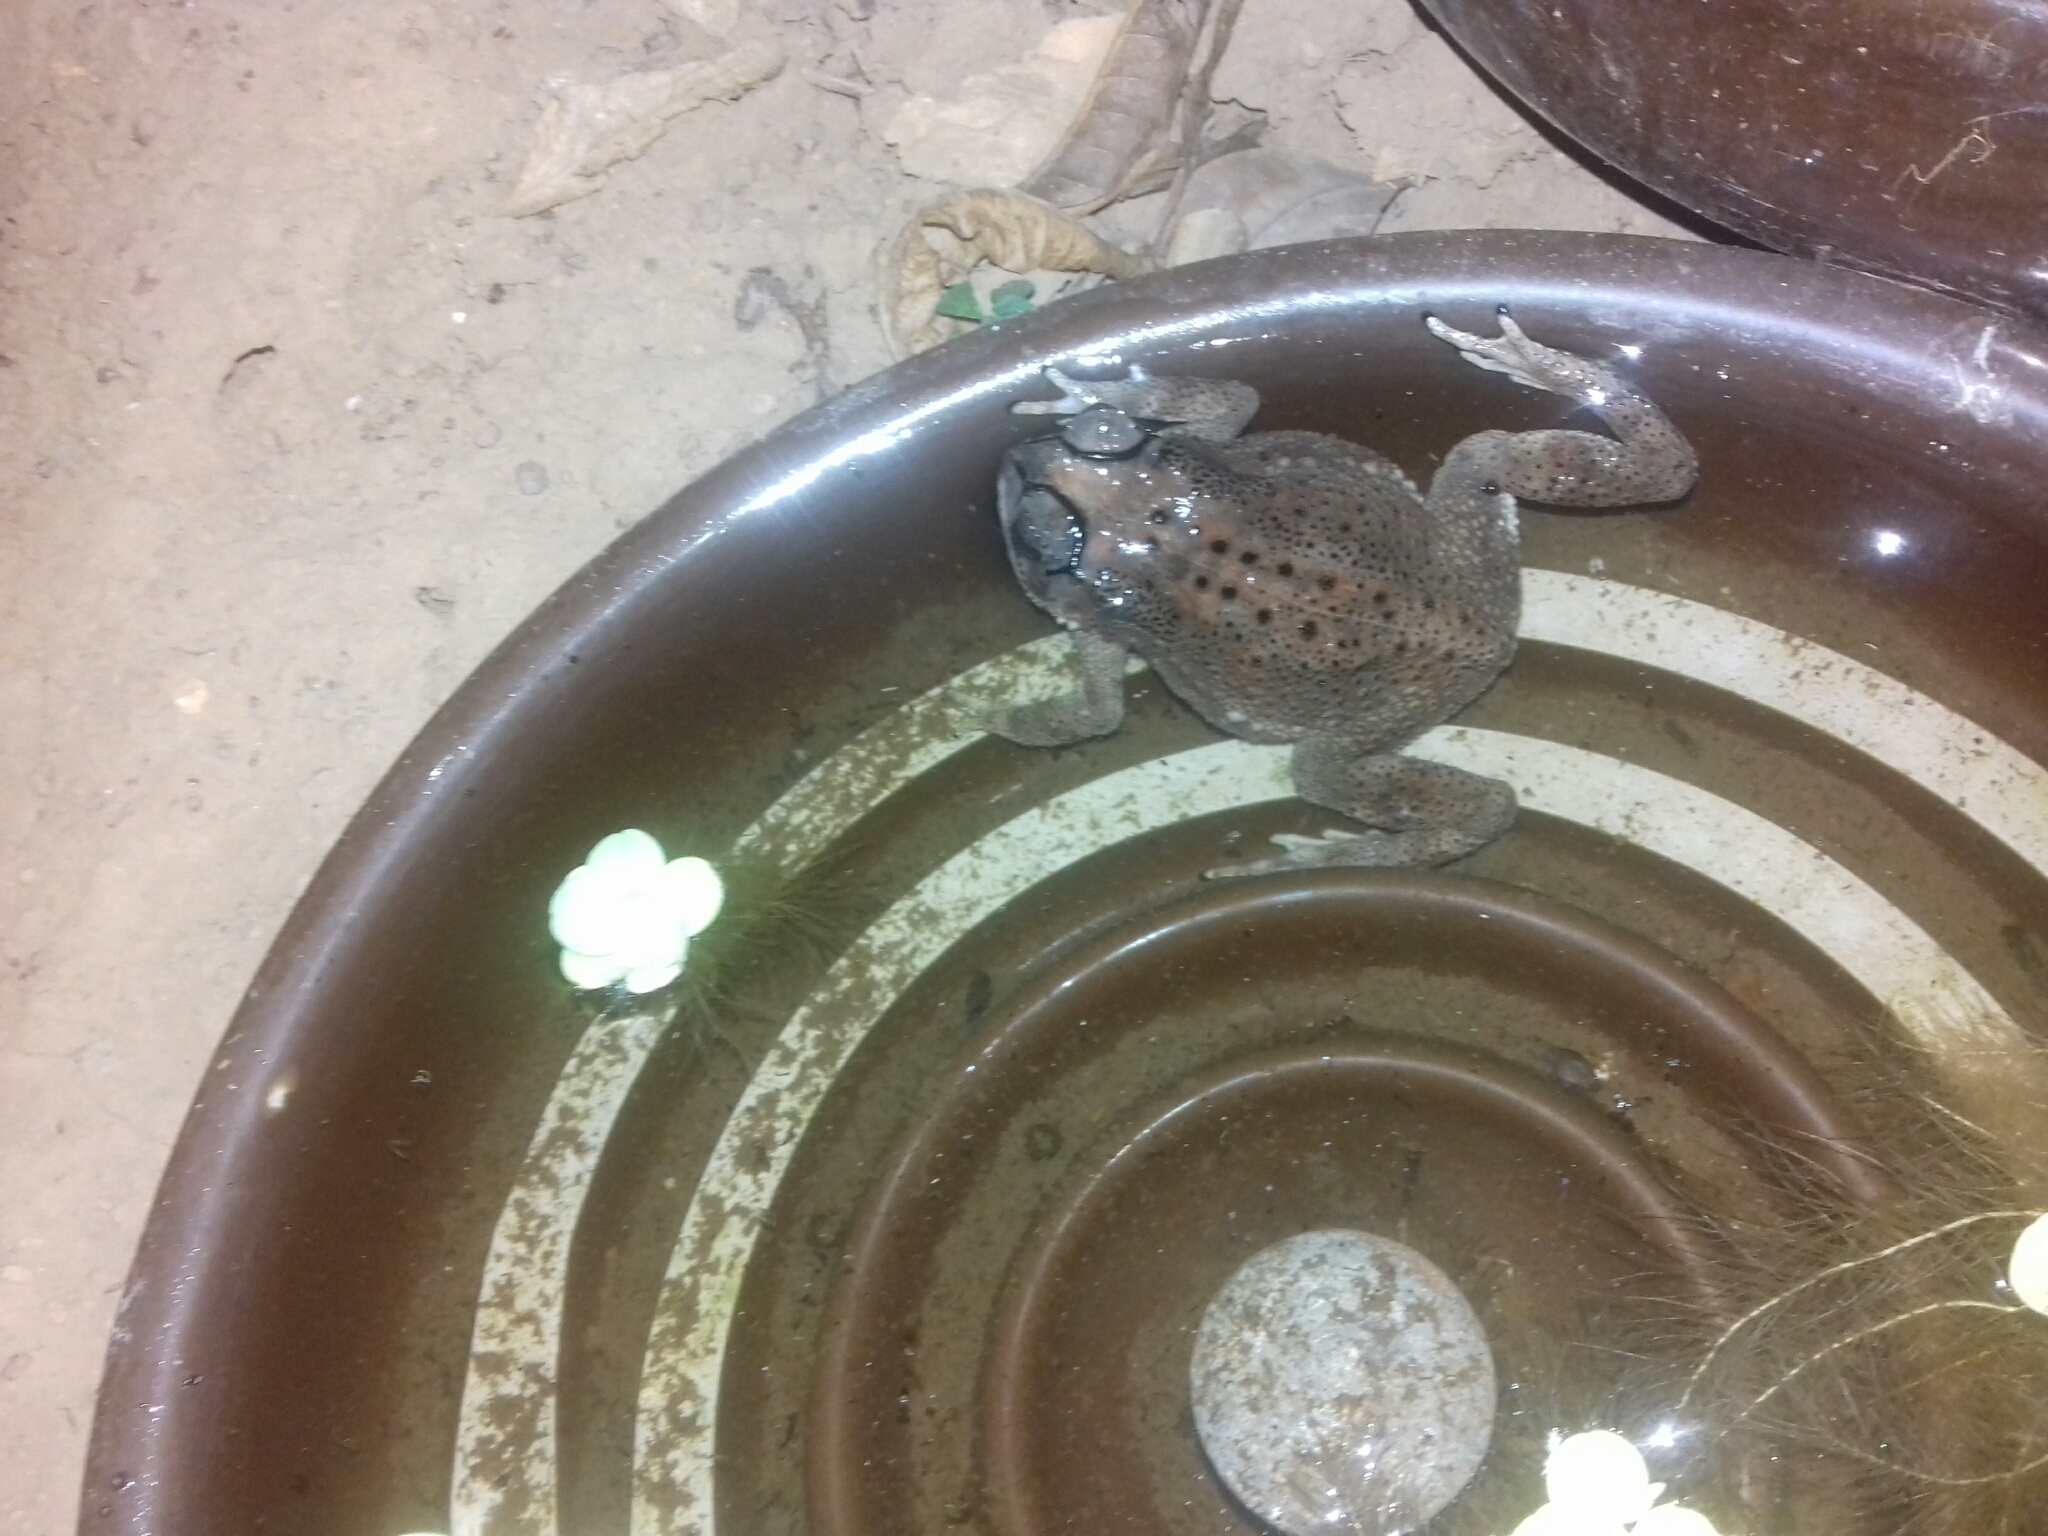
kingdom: Animalia
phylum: Chordata
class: Amphibia
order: Anura
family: Bufonidae
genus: Duttaphrynus
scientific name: Duttaphrynus melanostictus
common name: Common sunda toad
